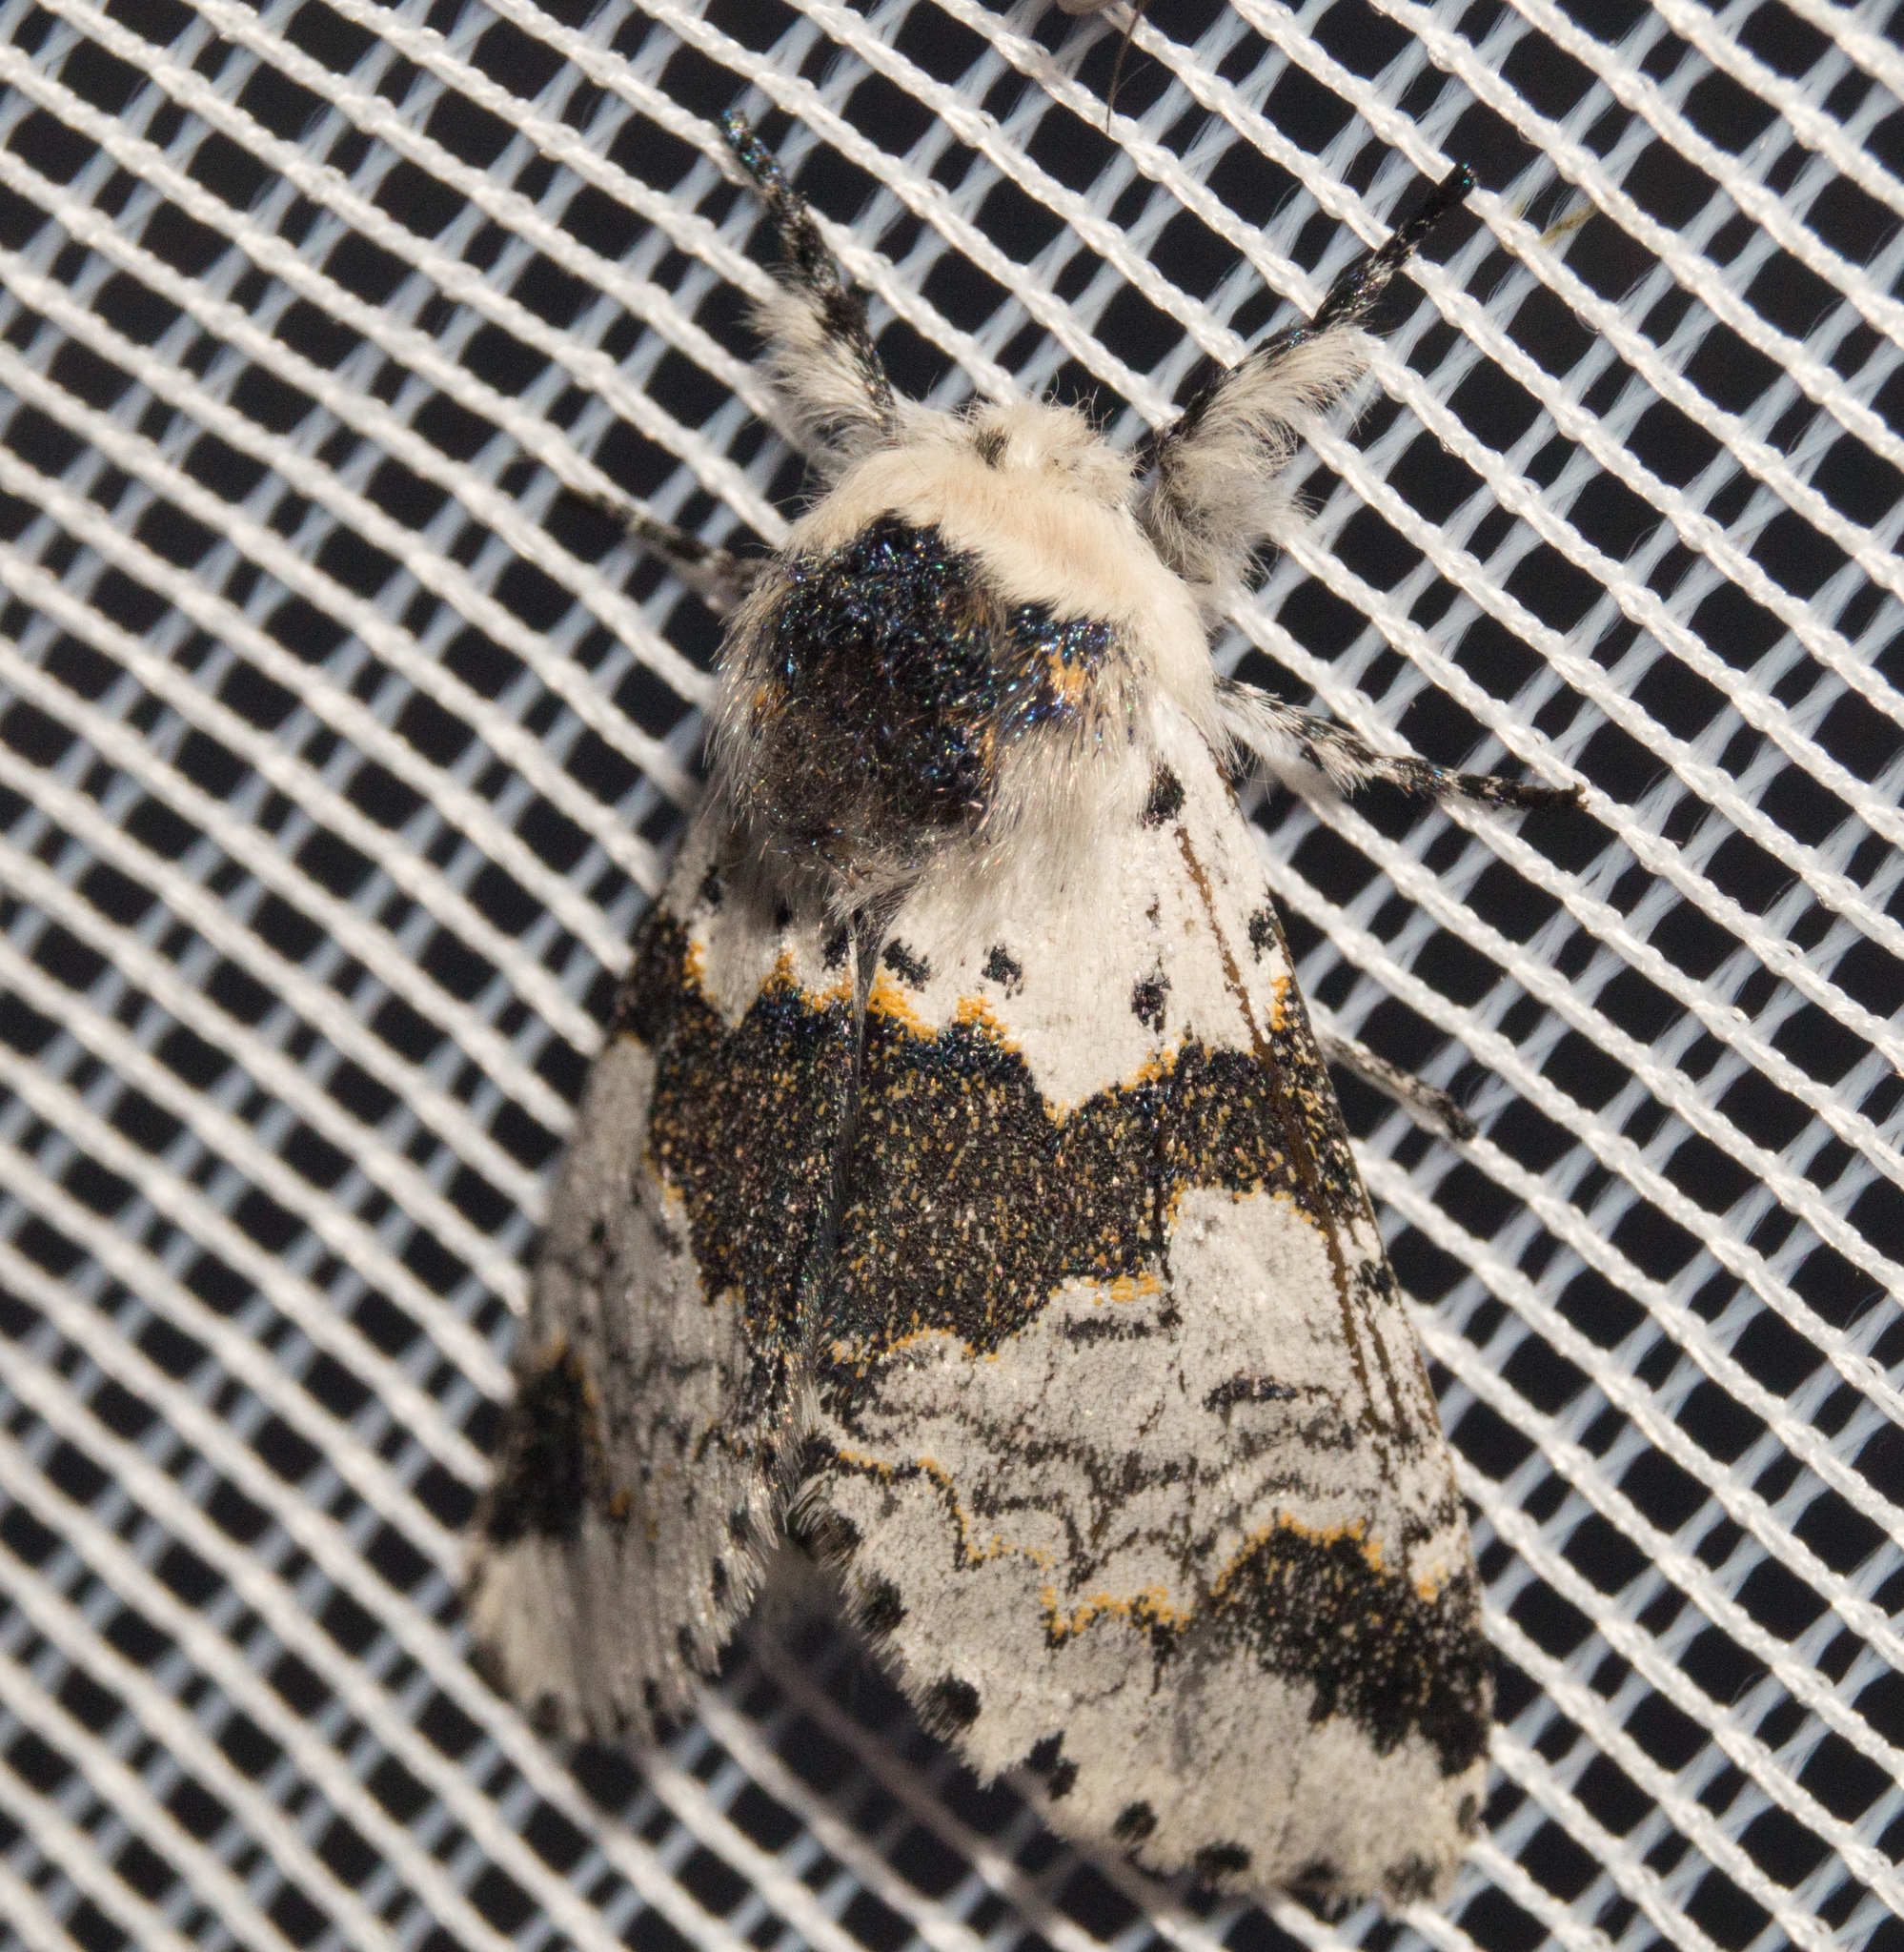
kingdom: Animalia
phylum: Arthropoda
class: Insecta
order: Lepidoptera
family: Notodontidae
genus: Furcula
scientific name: Furcula bicuspis
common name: Alder kitten
